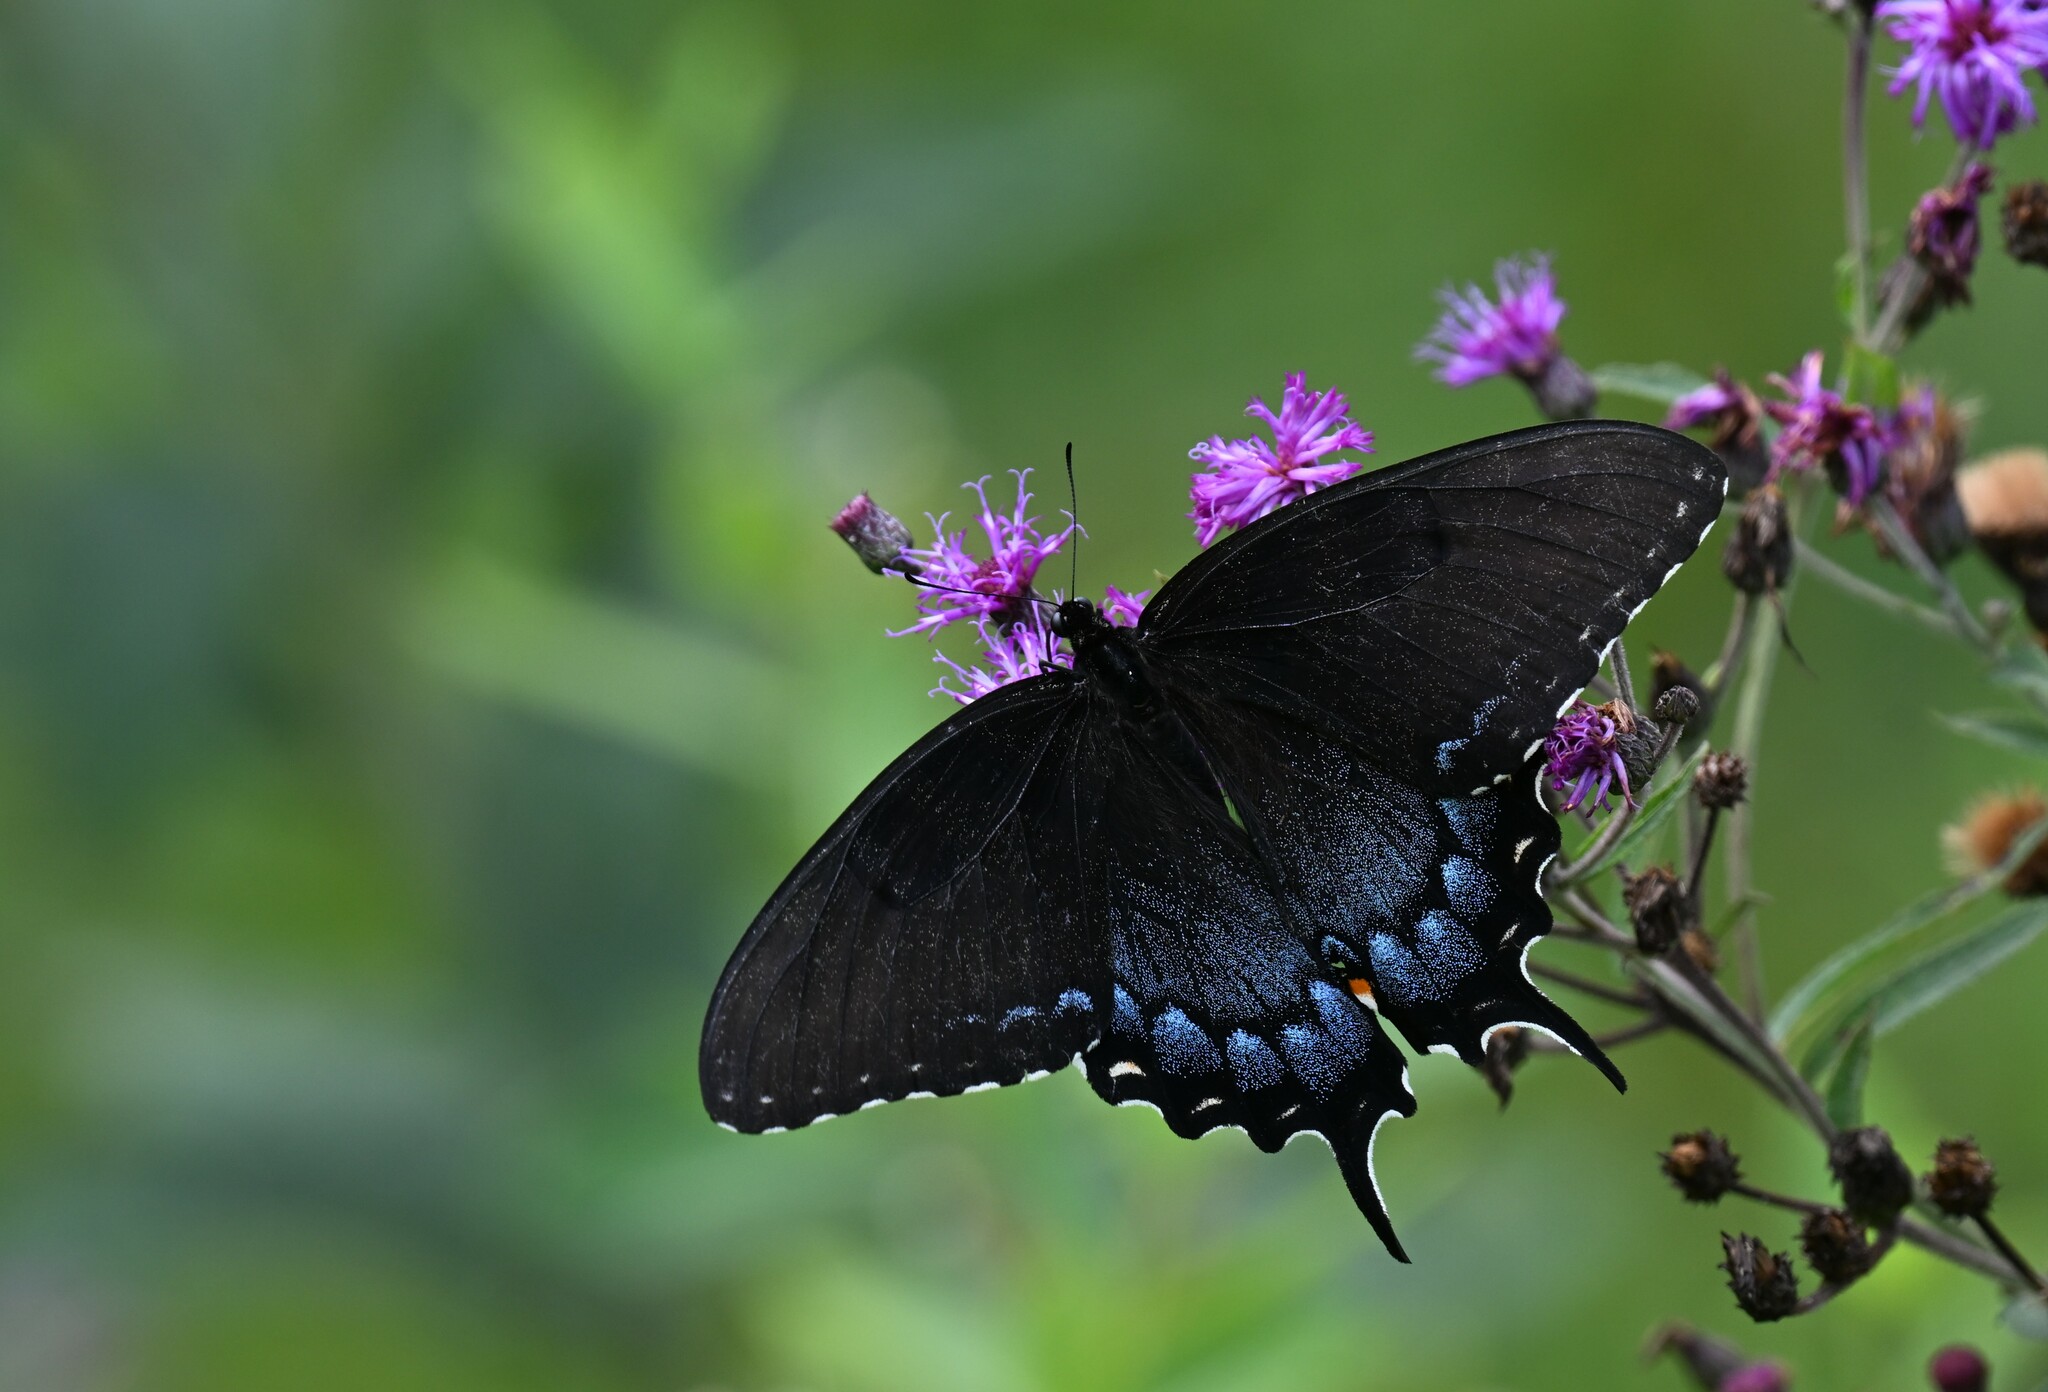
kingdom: Animalia
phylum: Arthropoda
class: Insecta
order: Lepidoptera
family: Papilionidae
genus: Papilio
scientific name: Papilio glaucus
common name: Tiger swallowtail
